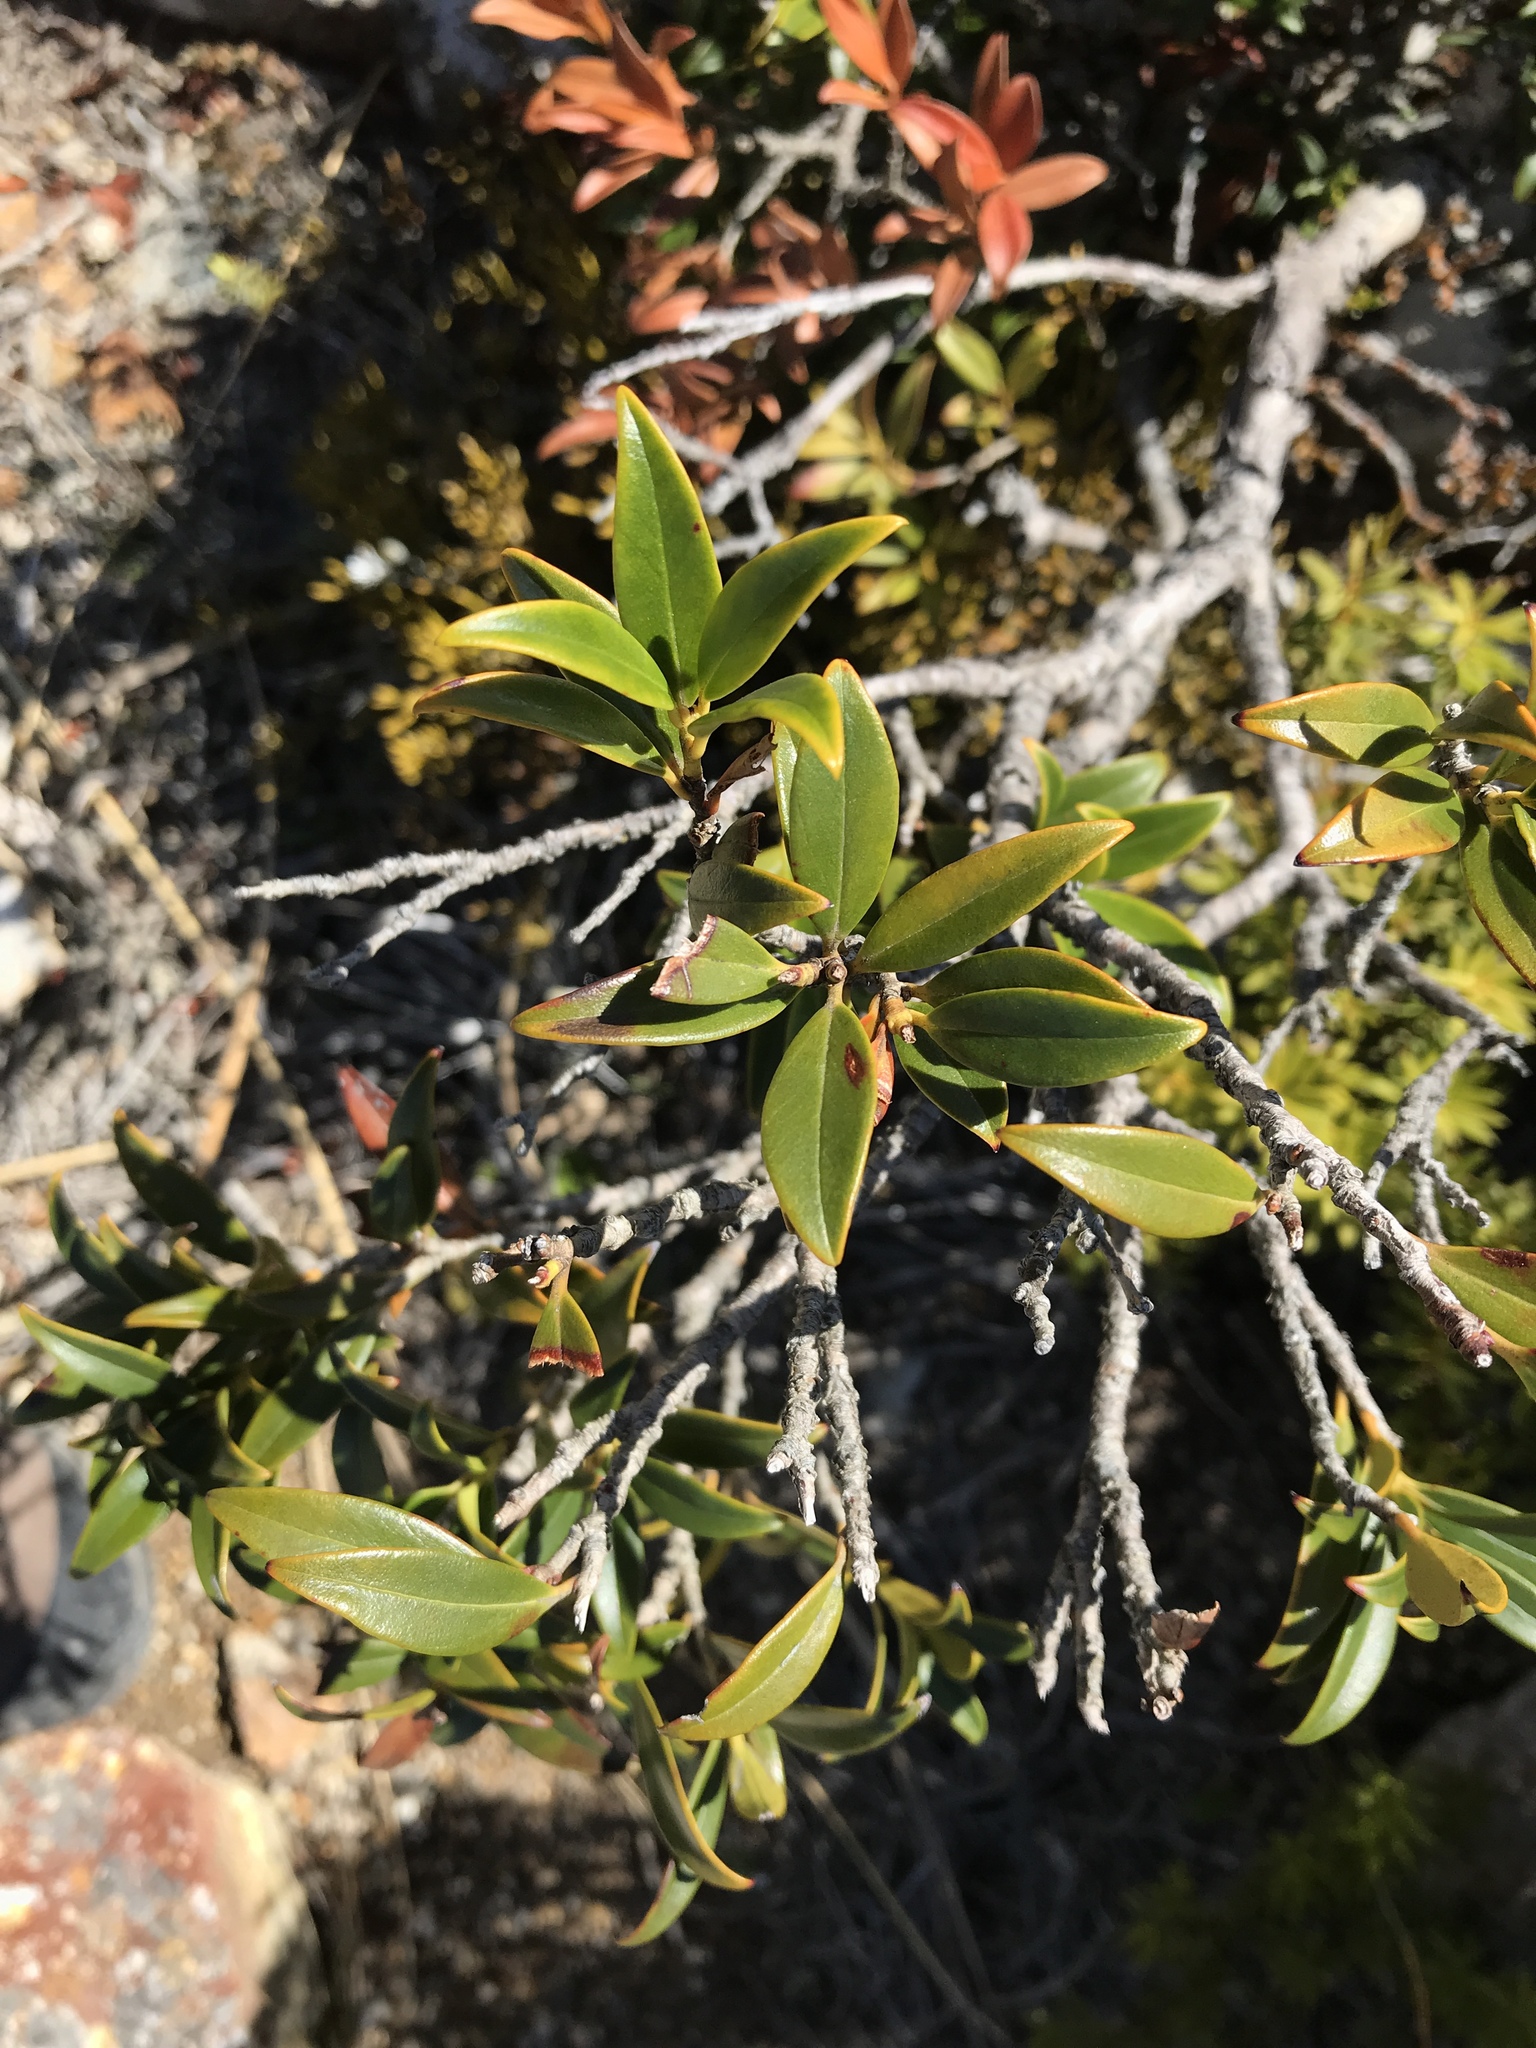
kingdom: Plantae
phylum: Tracheophyta
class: Magnoliopsida
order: Myrtales
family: Myrtaceae
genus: Metrosideros
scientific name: Metrosideros umbellata
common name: Southern rata
